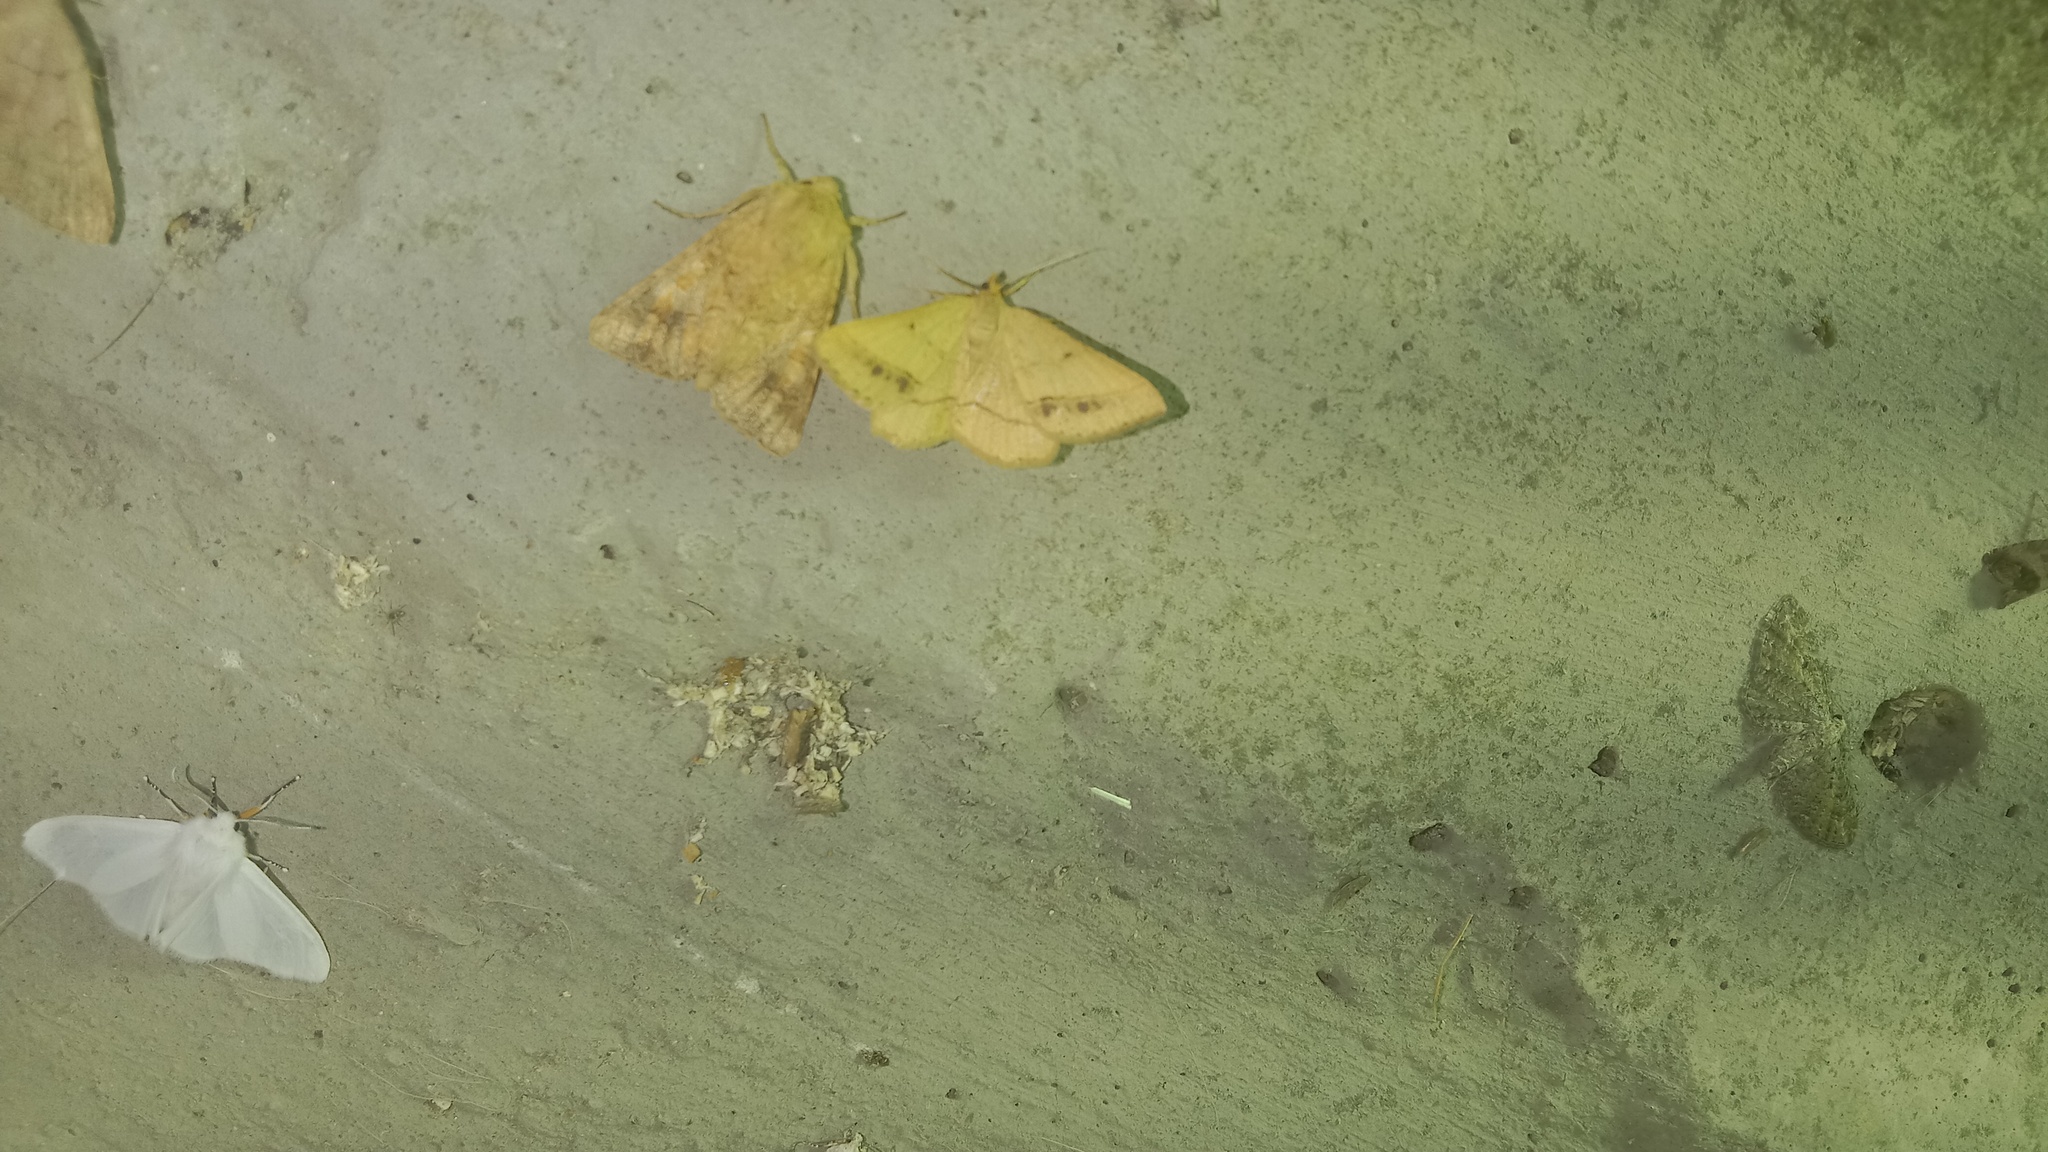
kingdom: Animalia
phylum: Arthropoda
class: Insecta
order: Lepidoptera
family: Noctuidae
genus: Conisania
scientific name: Conisania luteago
